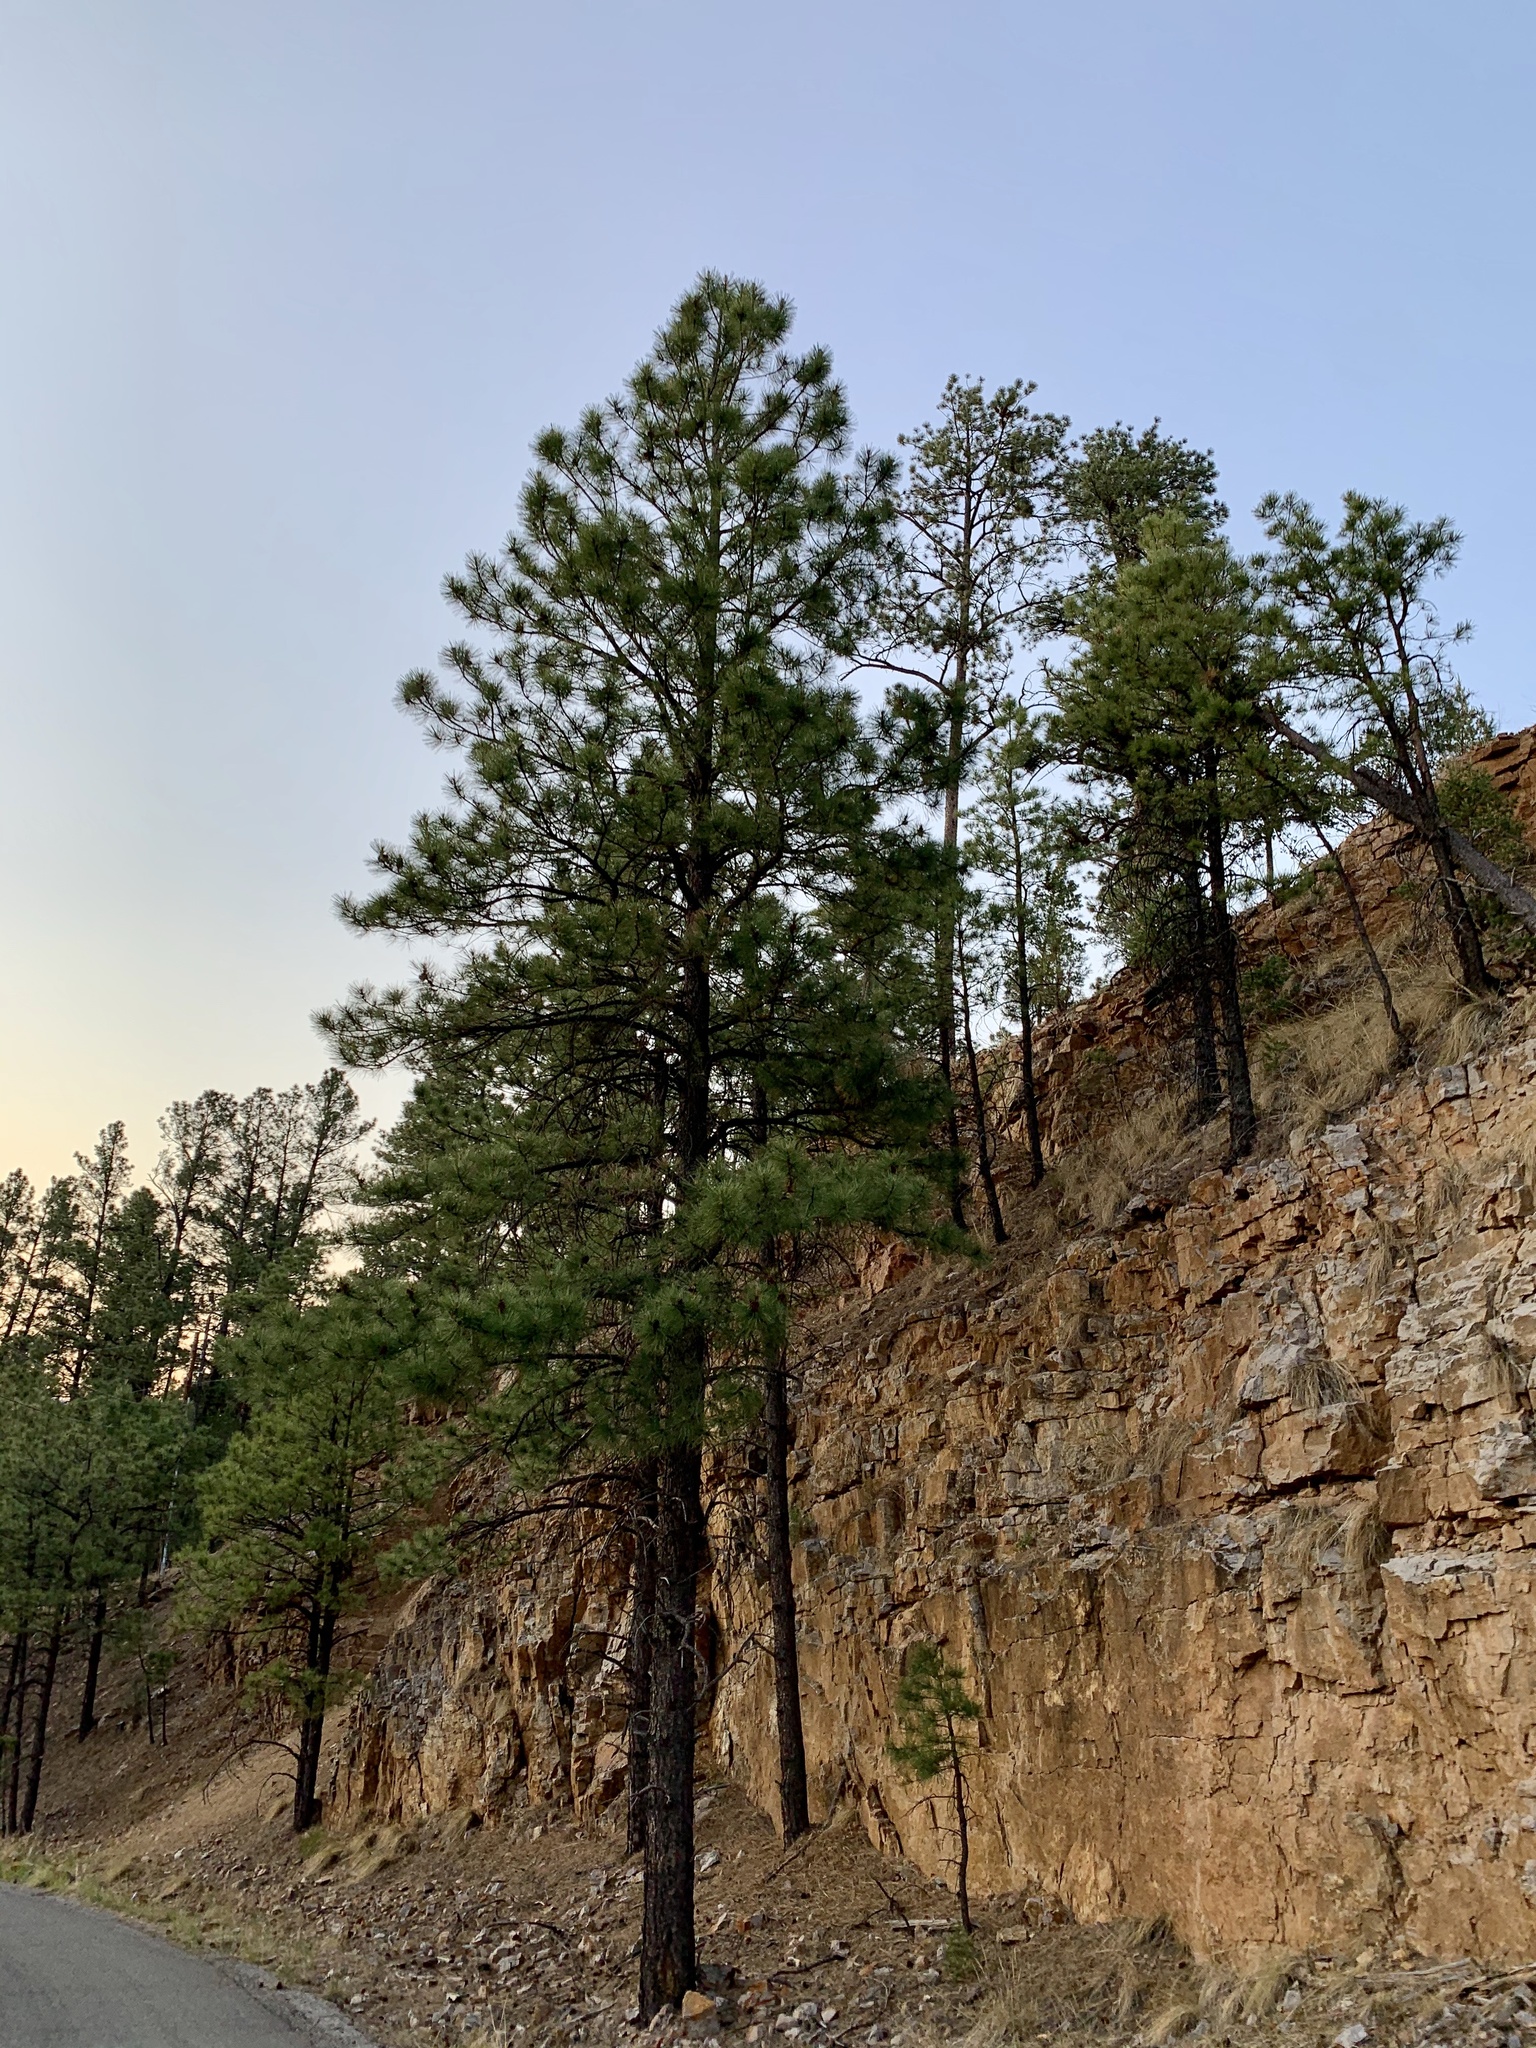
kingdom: Plantae
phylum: Tracheophyta
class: Pinopsida
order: Pinales
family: Pinaceae
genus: Pinus
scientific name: Pinus ponderosa
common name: Western yellow-pine
